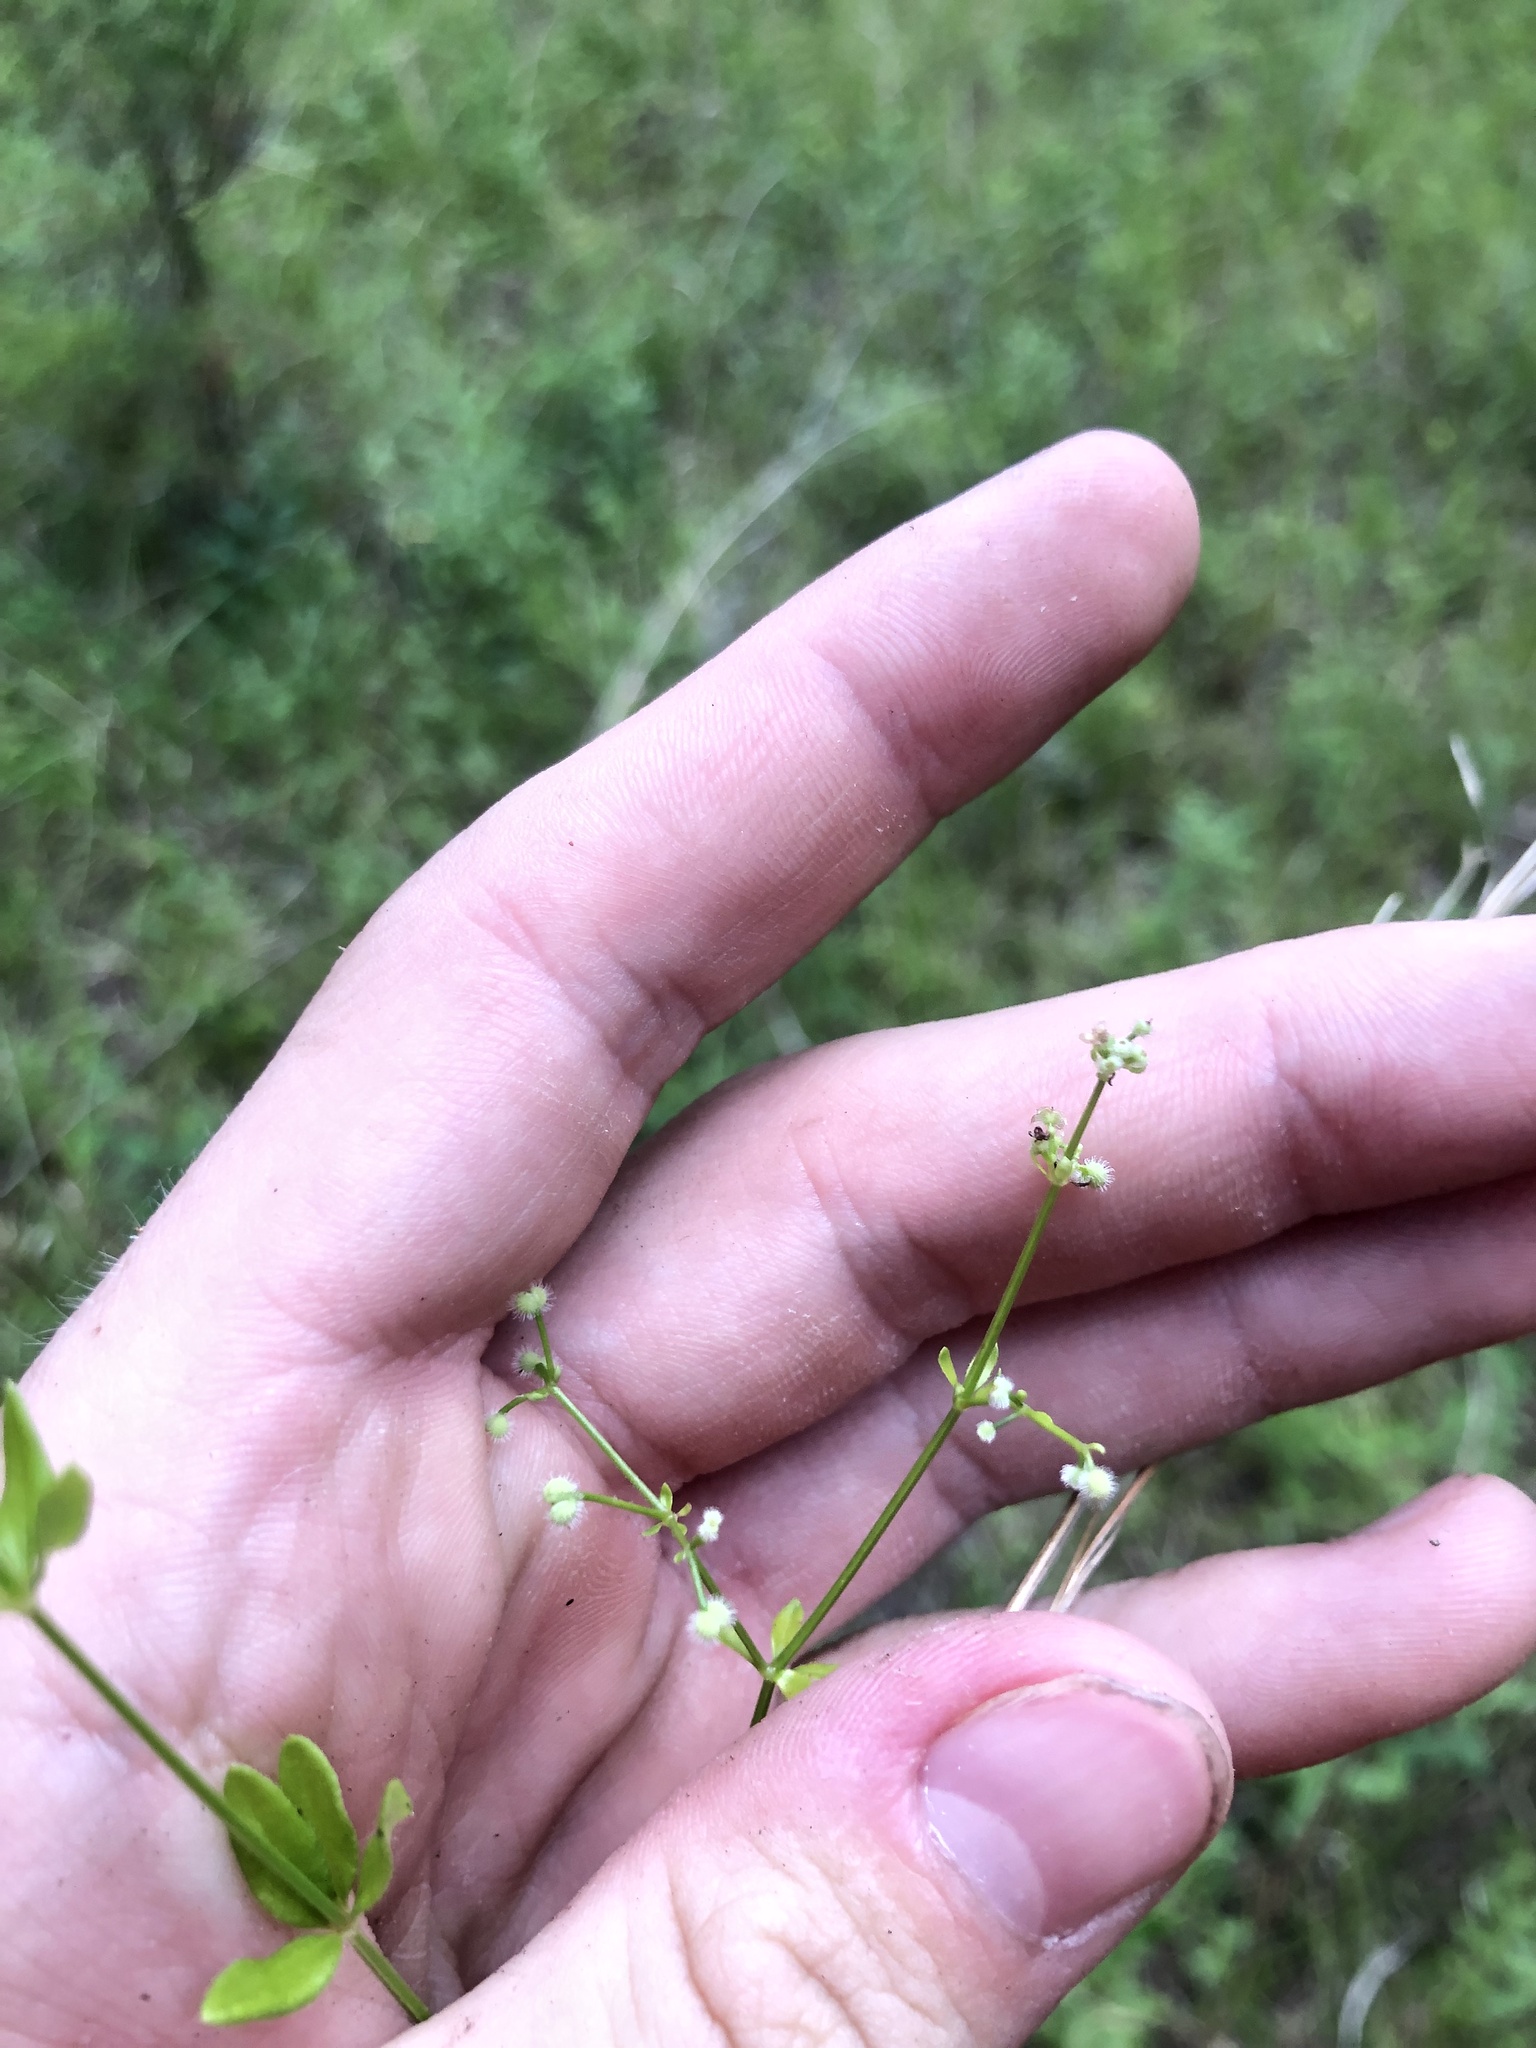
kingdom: Plantae
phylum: Tracheophyta
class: Magnoliopsida
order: Gentianales
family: Rubiaceae
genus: Galium
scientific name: Galium pilosum
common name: Hairy bedstraw
